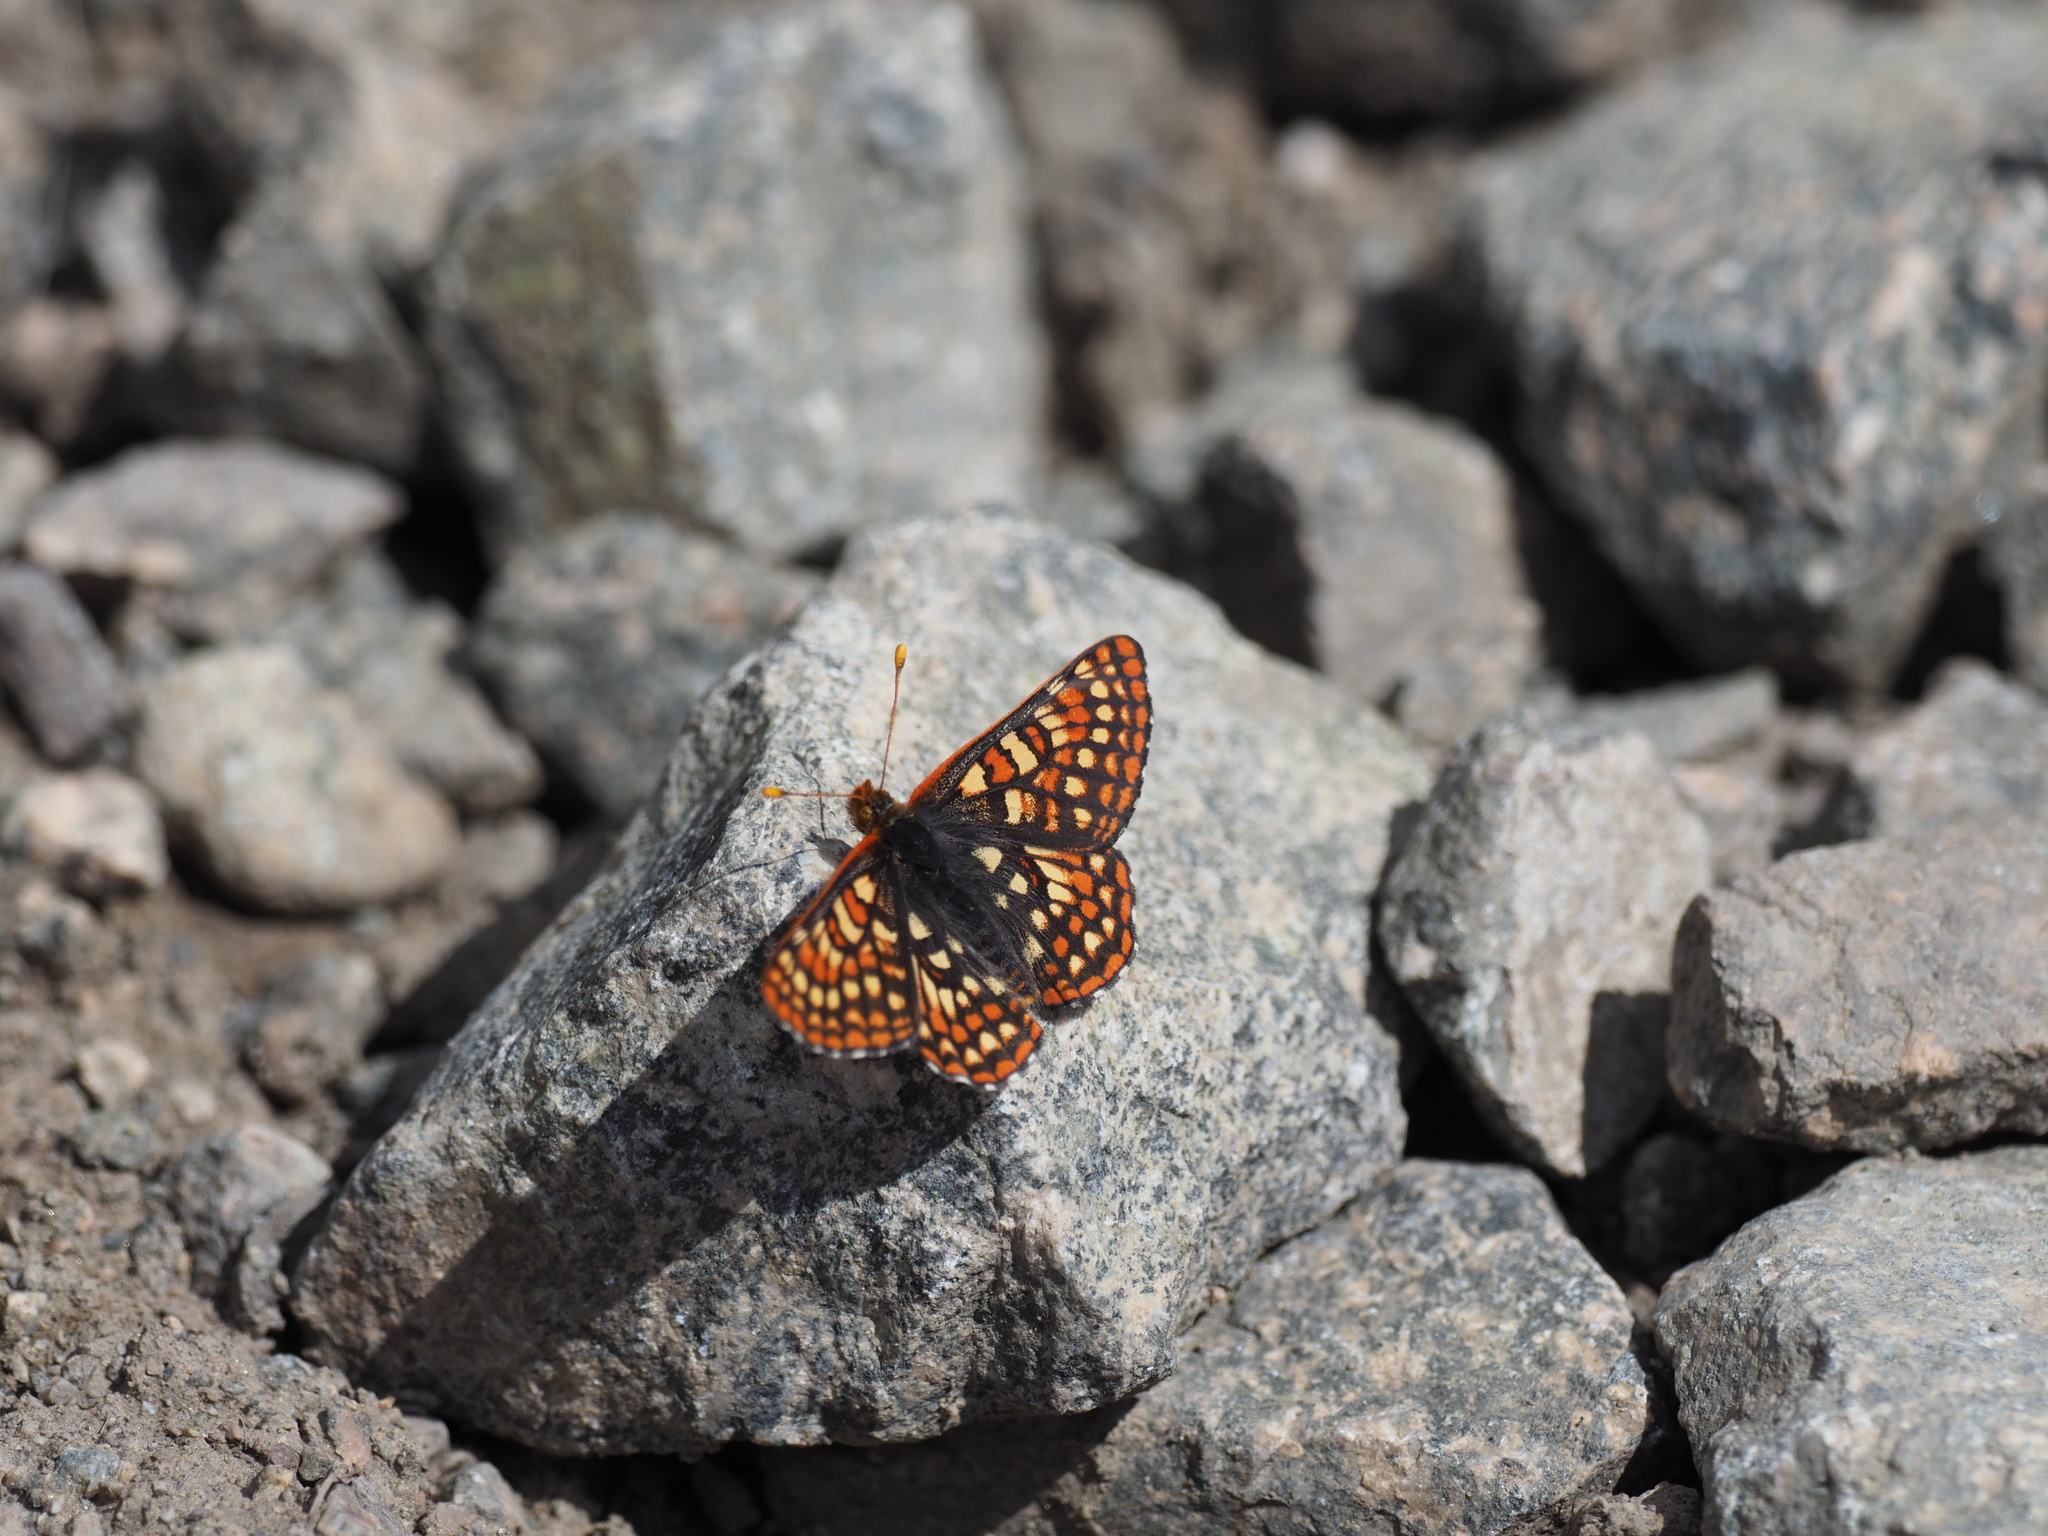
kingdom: Animalia
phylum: Arthropoda
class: Insecta
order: Lepidoptera
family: Nymphalidae
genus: Occidryas
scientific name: Occidryas anicia
